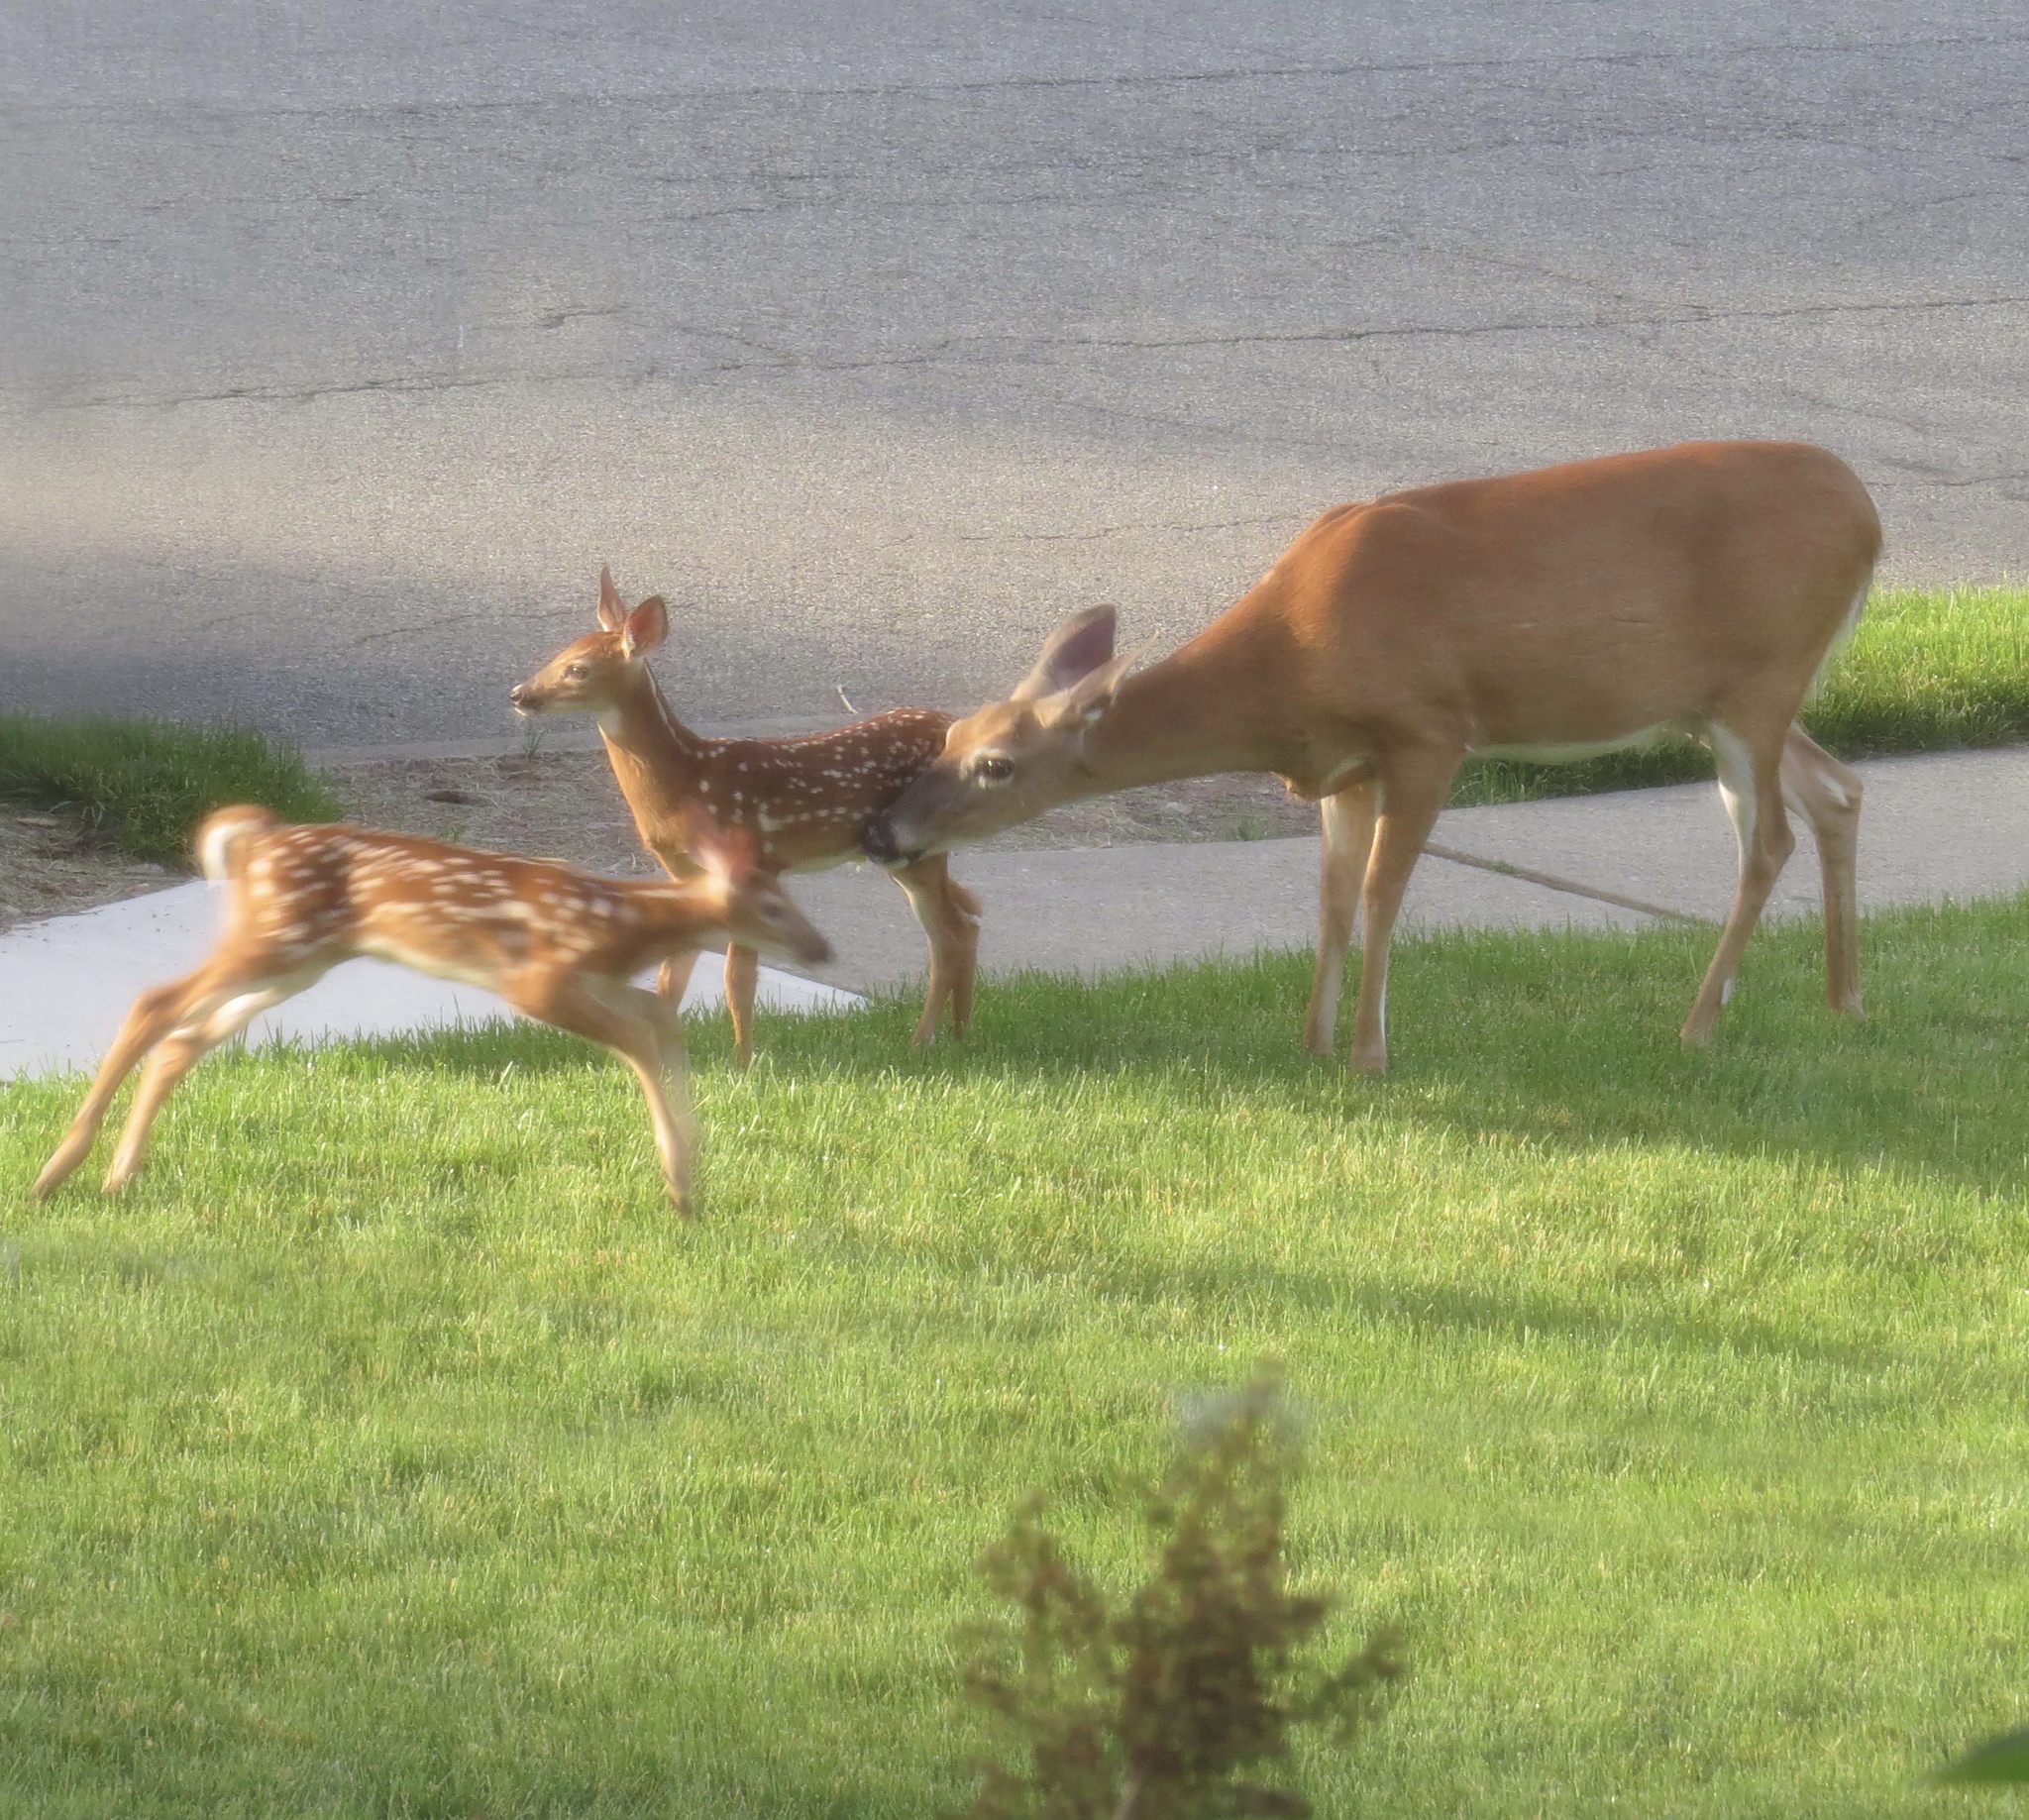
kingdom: Animalia
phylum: Chordata
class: Mammalia
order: Artiodactyla
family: Cervidae
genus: Odocoileus
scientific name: Odocoileus virginianus
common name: White-tailed deer
